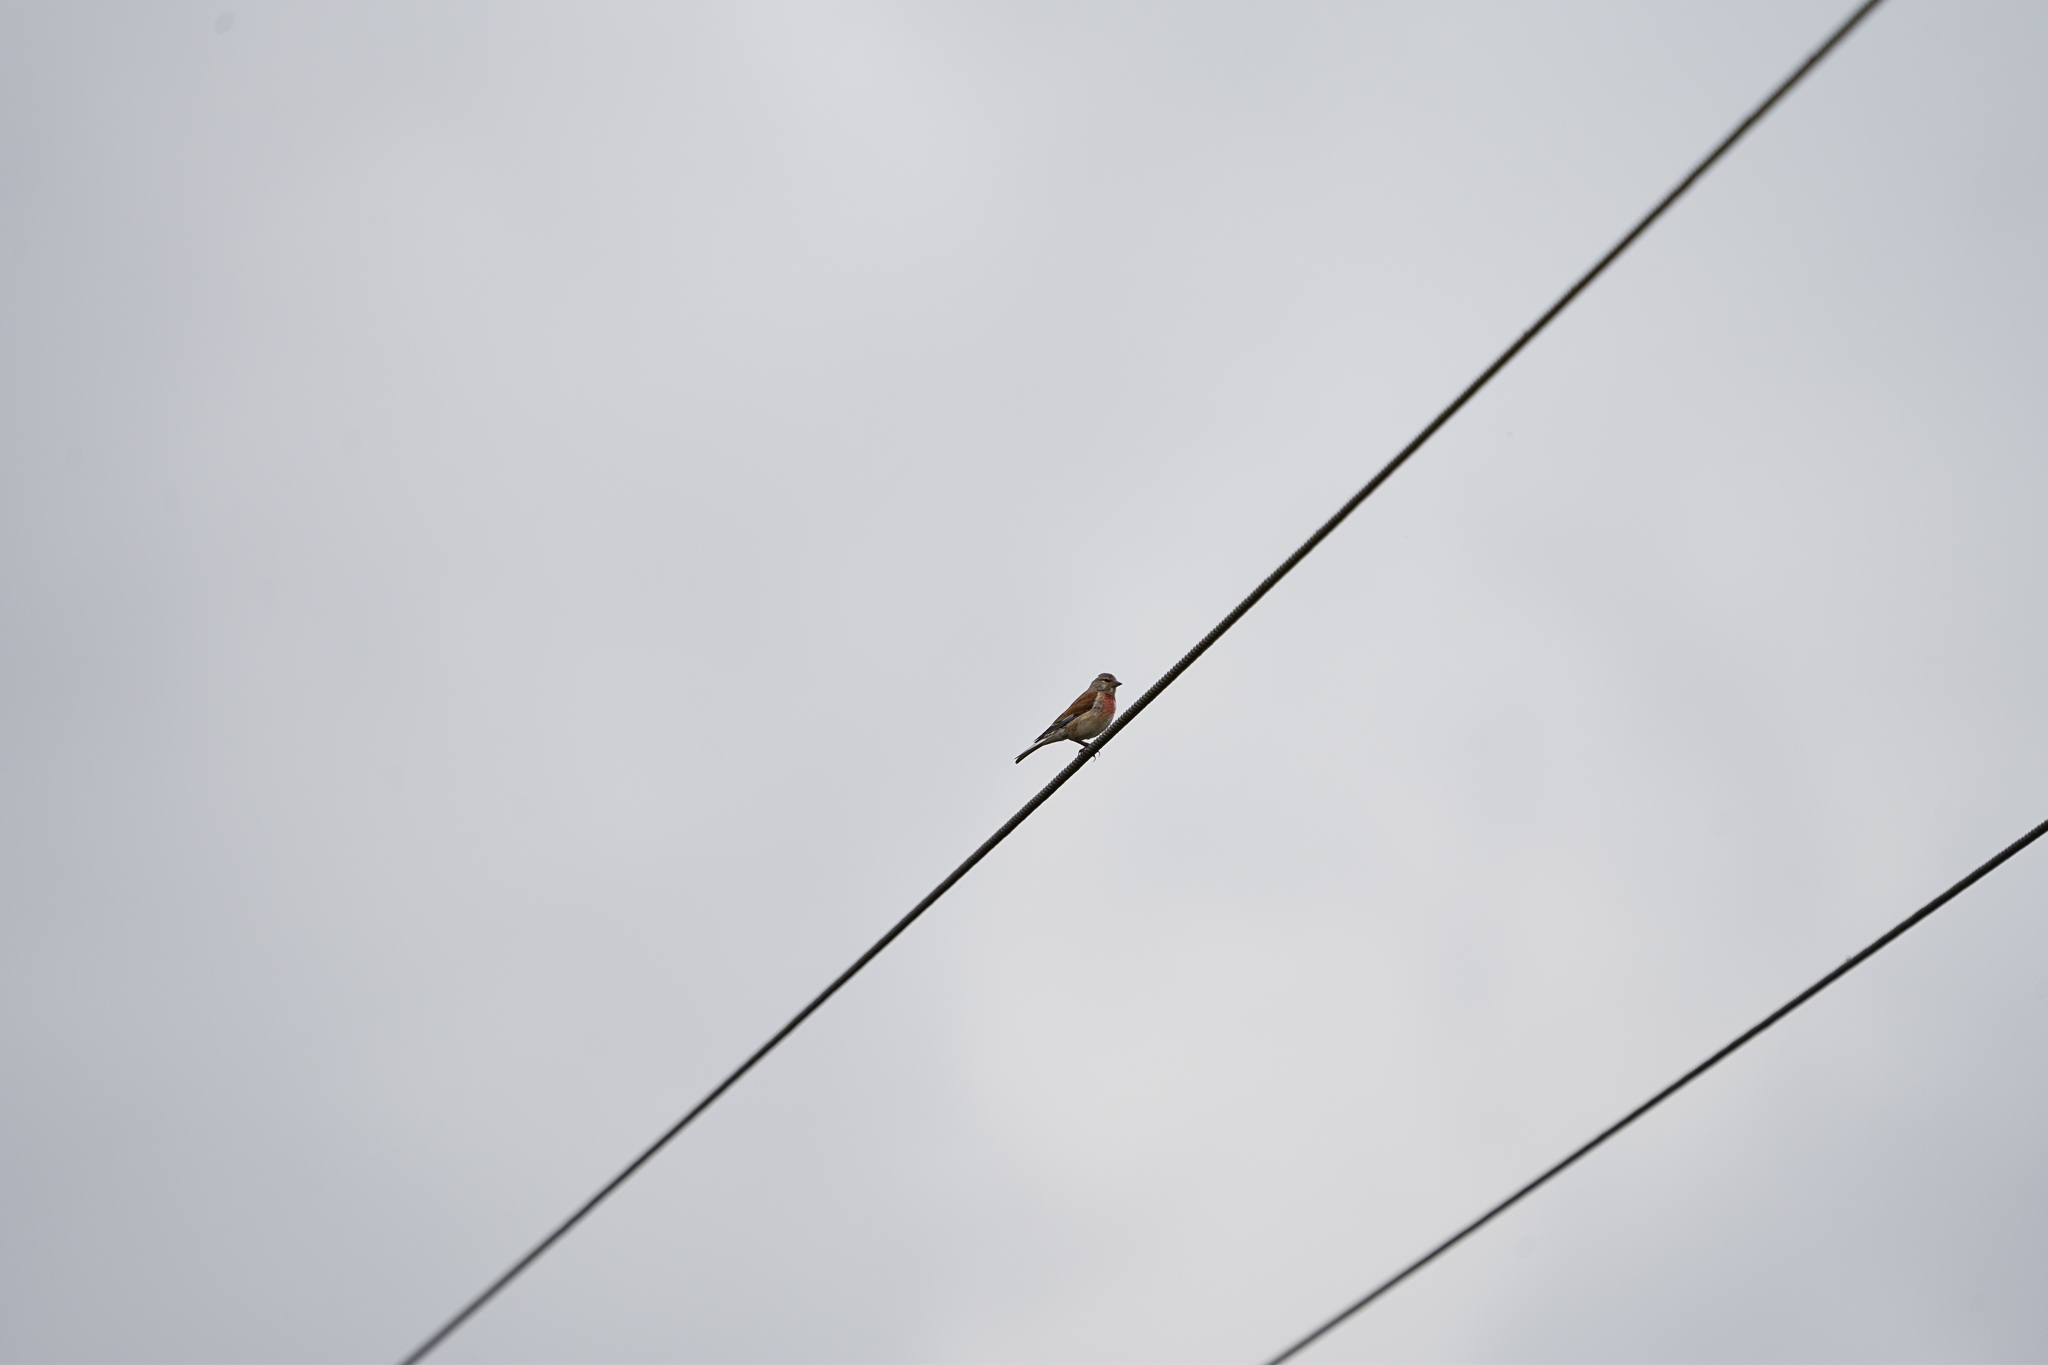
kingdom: Animalia
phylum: Chordata
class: Aves
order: Passeriformes
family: Fringillidae
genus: Linaria
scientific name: Linaria cannabina
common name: Common linnet
